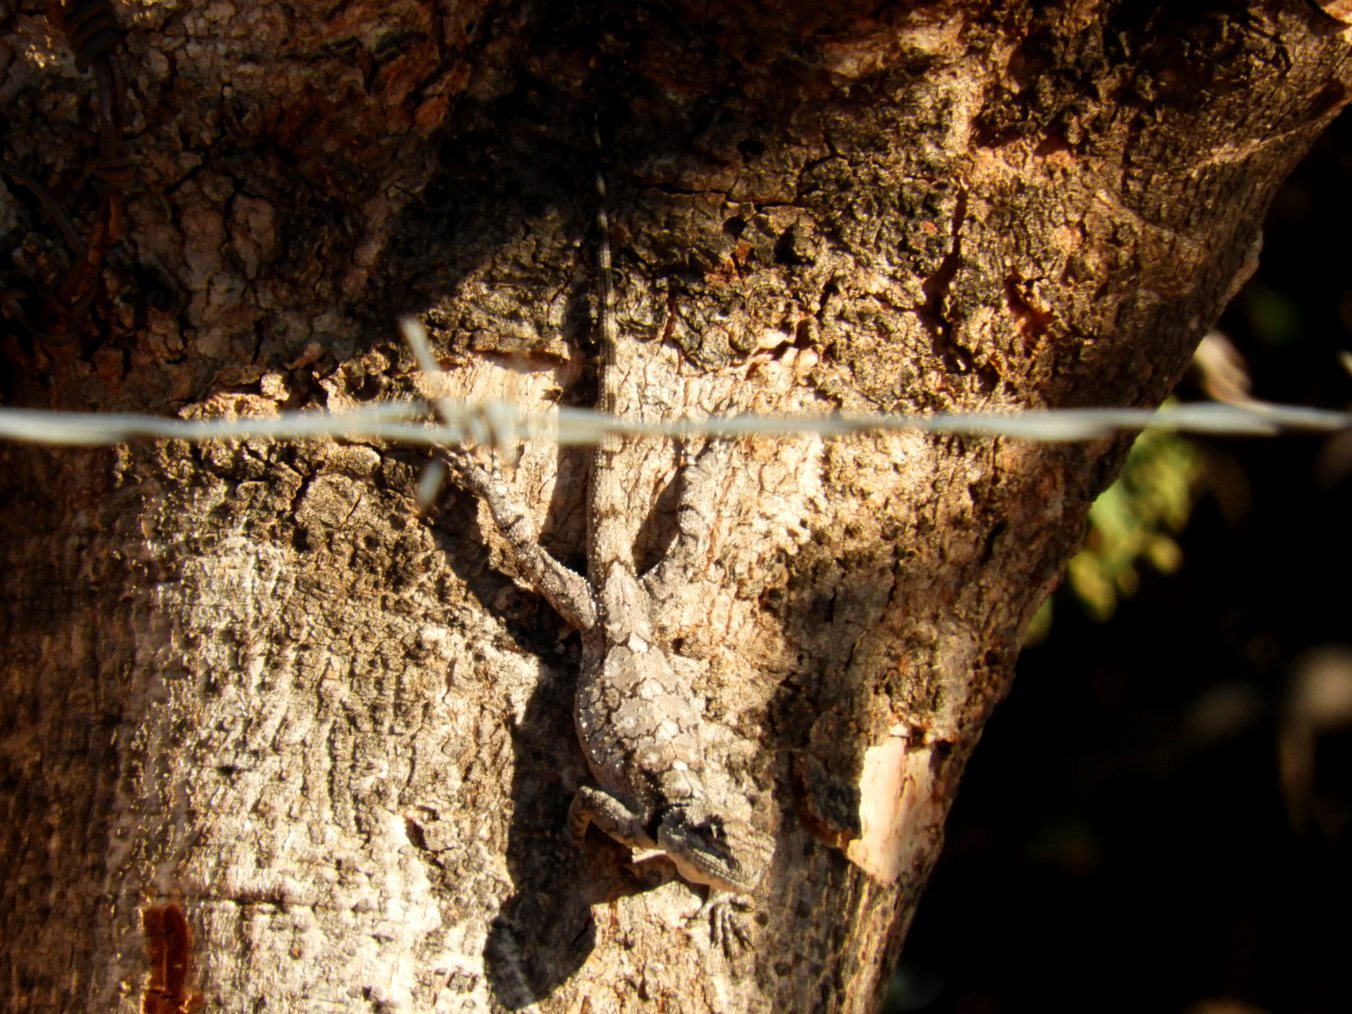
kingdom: Animalia
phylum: Chordata
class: Squamata
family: Agamidae
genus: Acanthocercus
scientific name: Acanthocercus atricollis
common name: Southern tree agama
